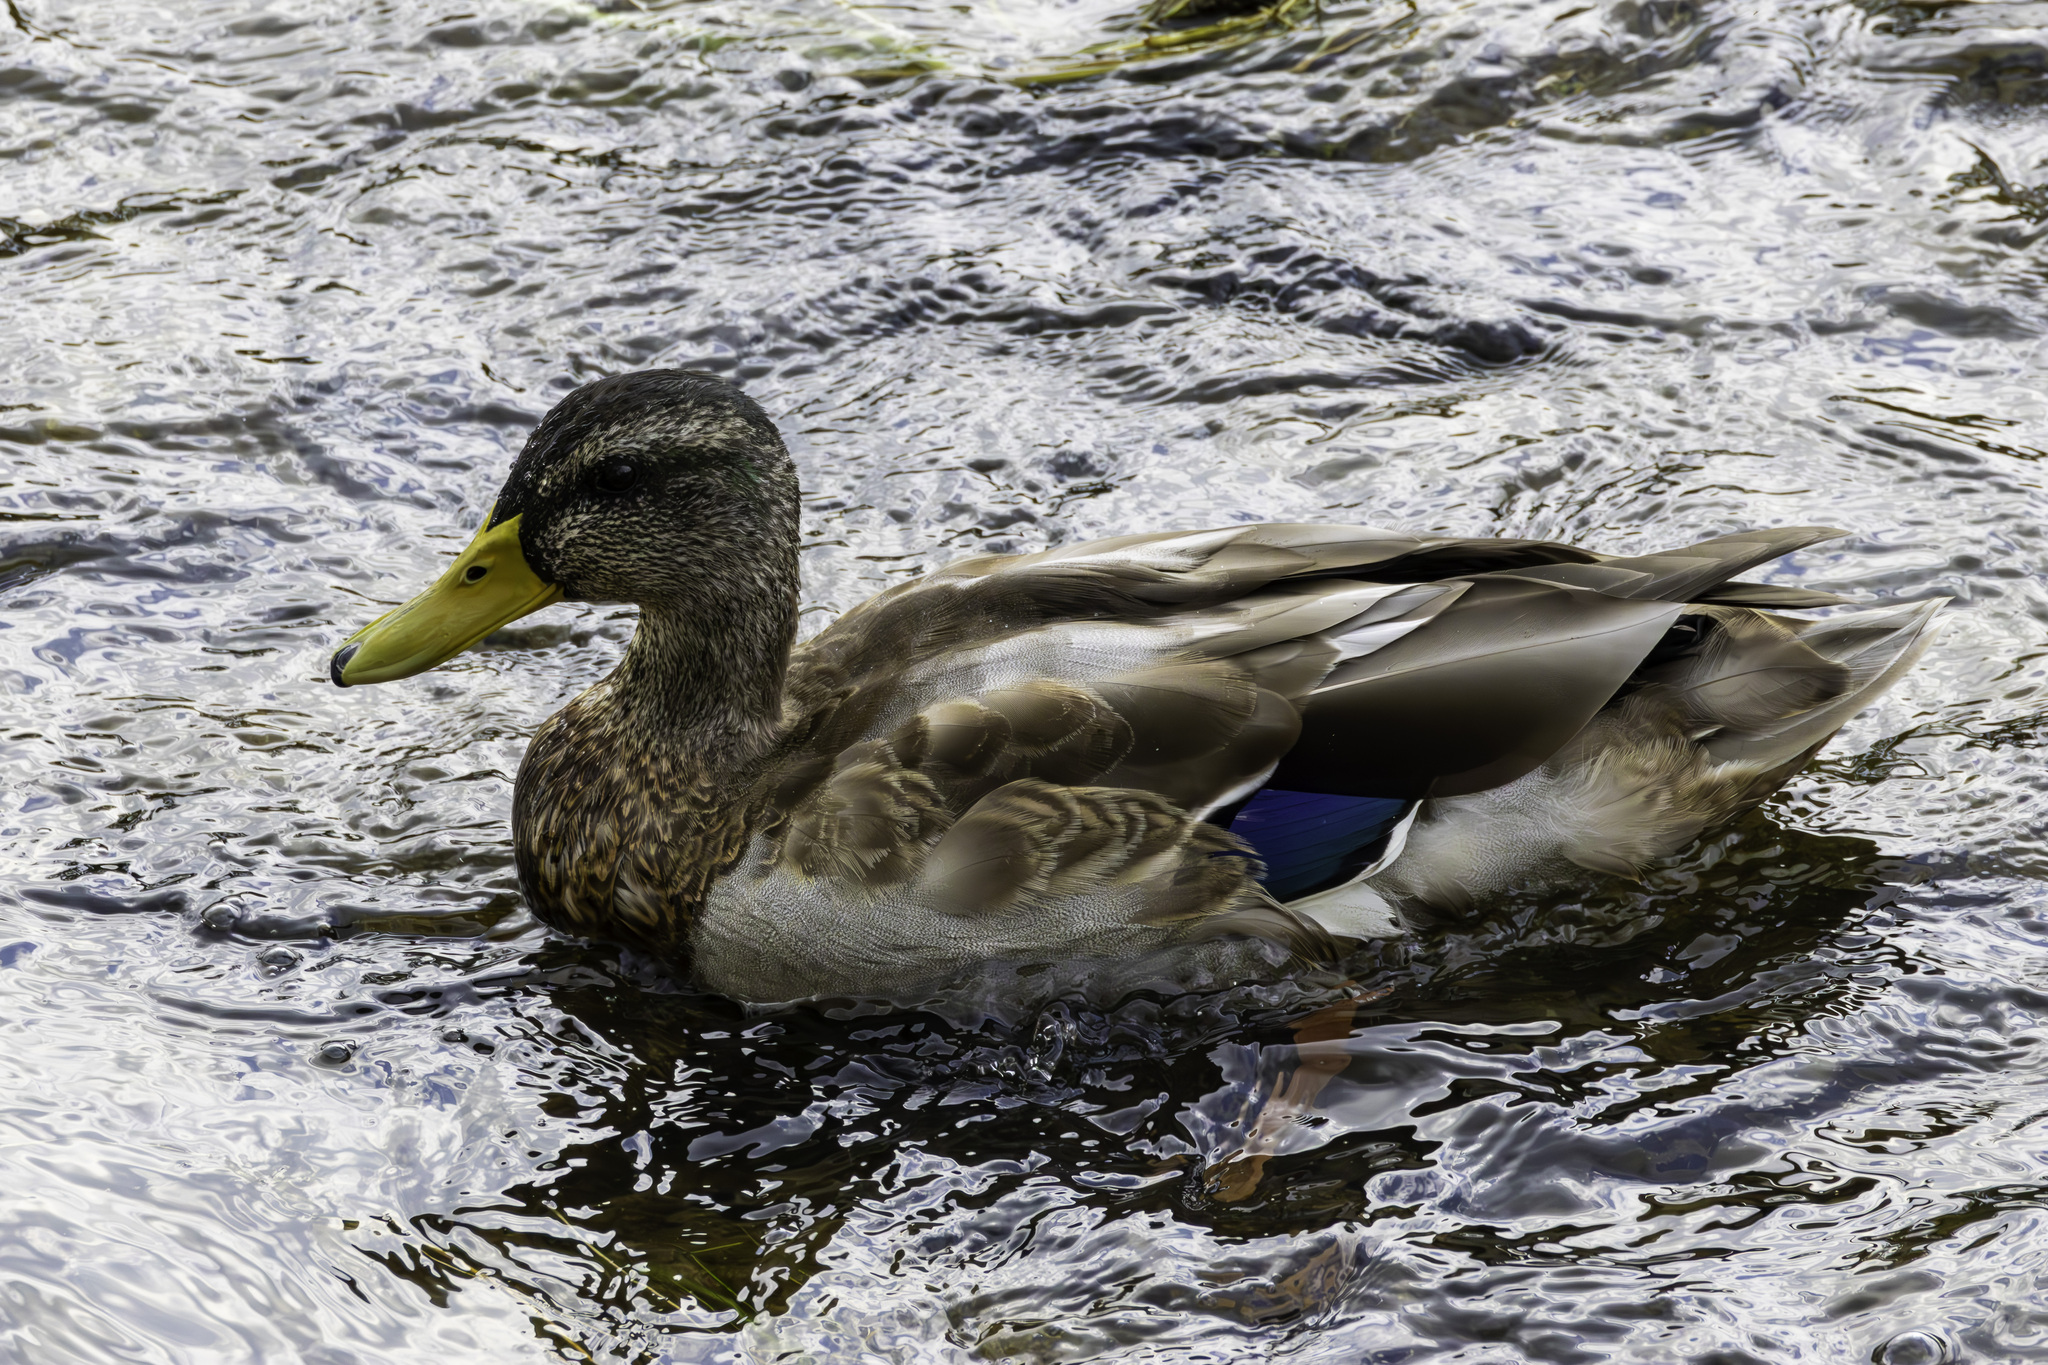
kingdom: Animalia
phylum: Chordata
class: Aves
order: Anseriformes
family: Anatidae
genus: Anas
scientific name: Anas platyrhynchos
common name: Mallard
